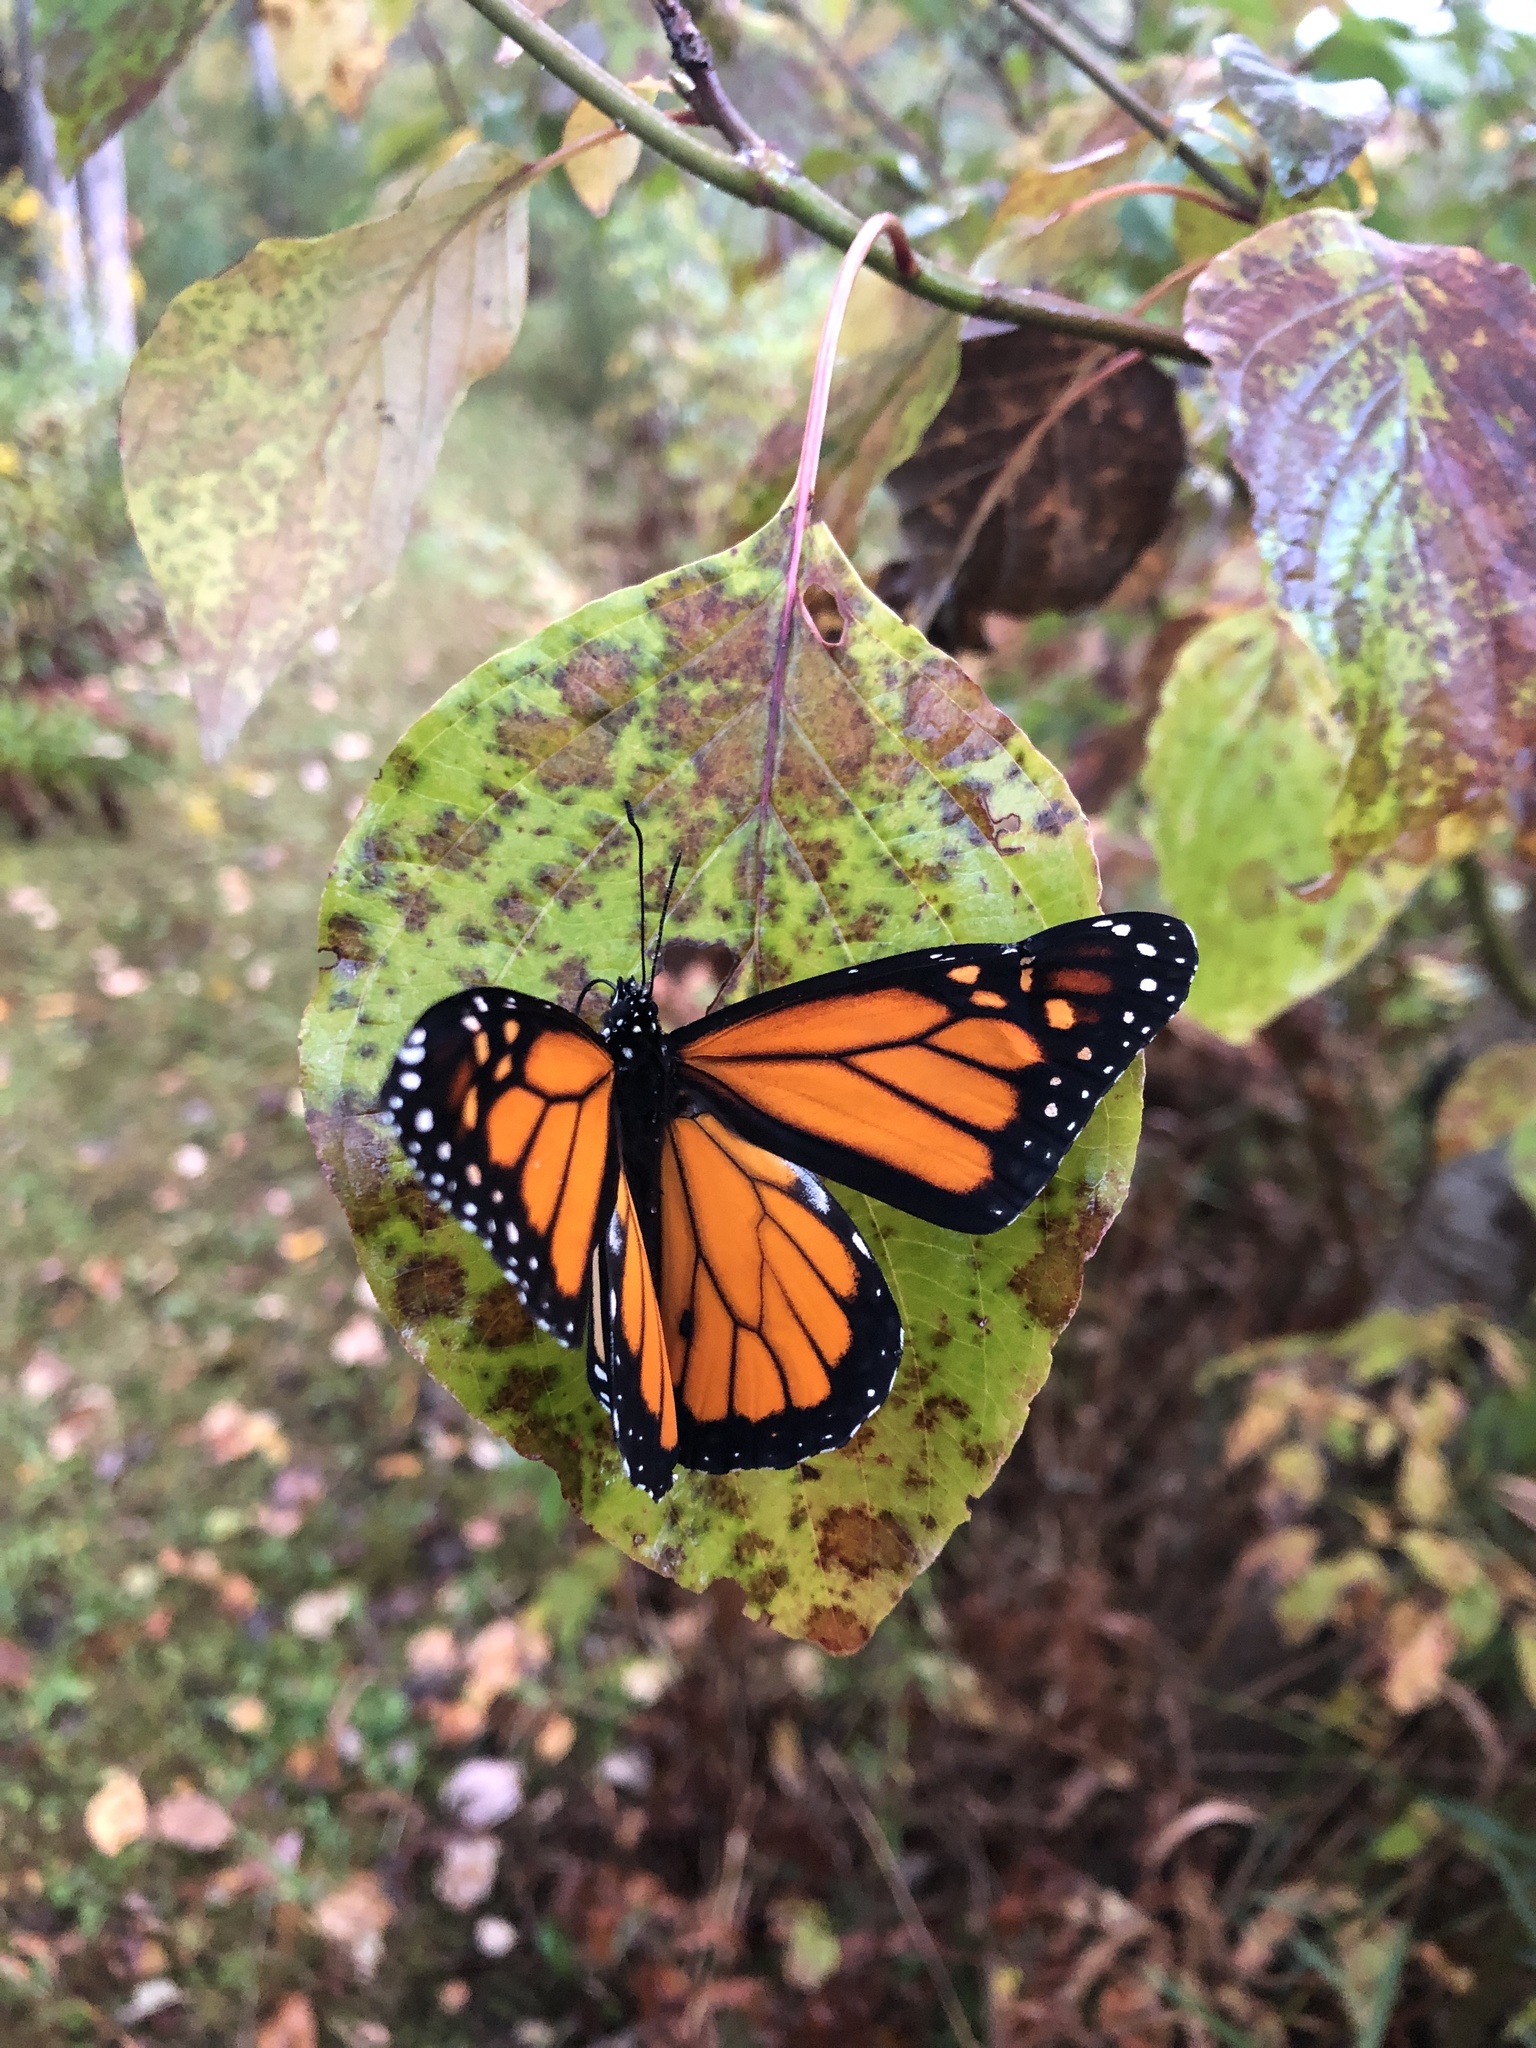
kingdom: Animalia
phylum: Arthropoda
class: Insecta
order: Lepidoptera
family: Nymphalidae
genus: Danaus
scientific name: Danaus plexippus
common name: Monarch
